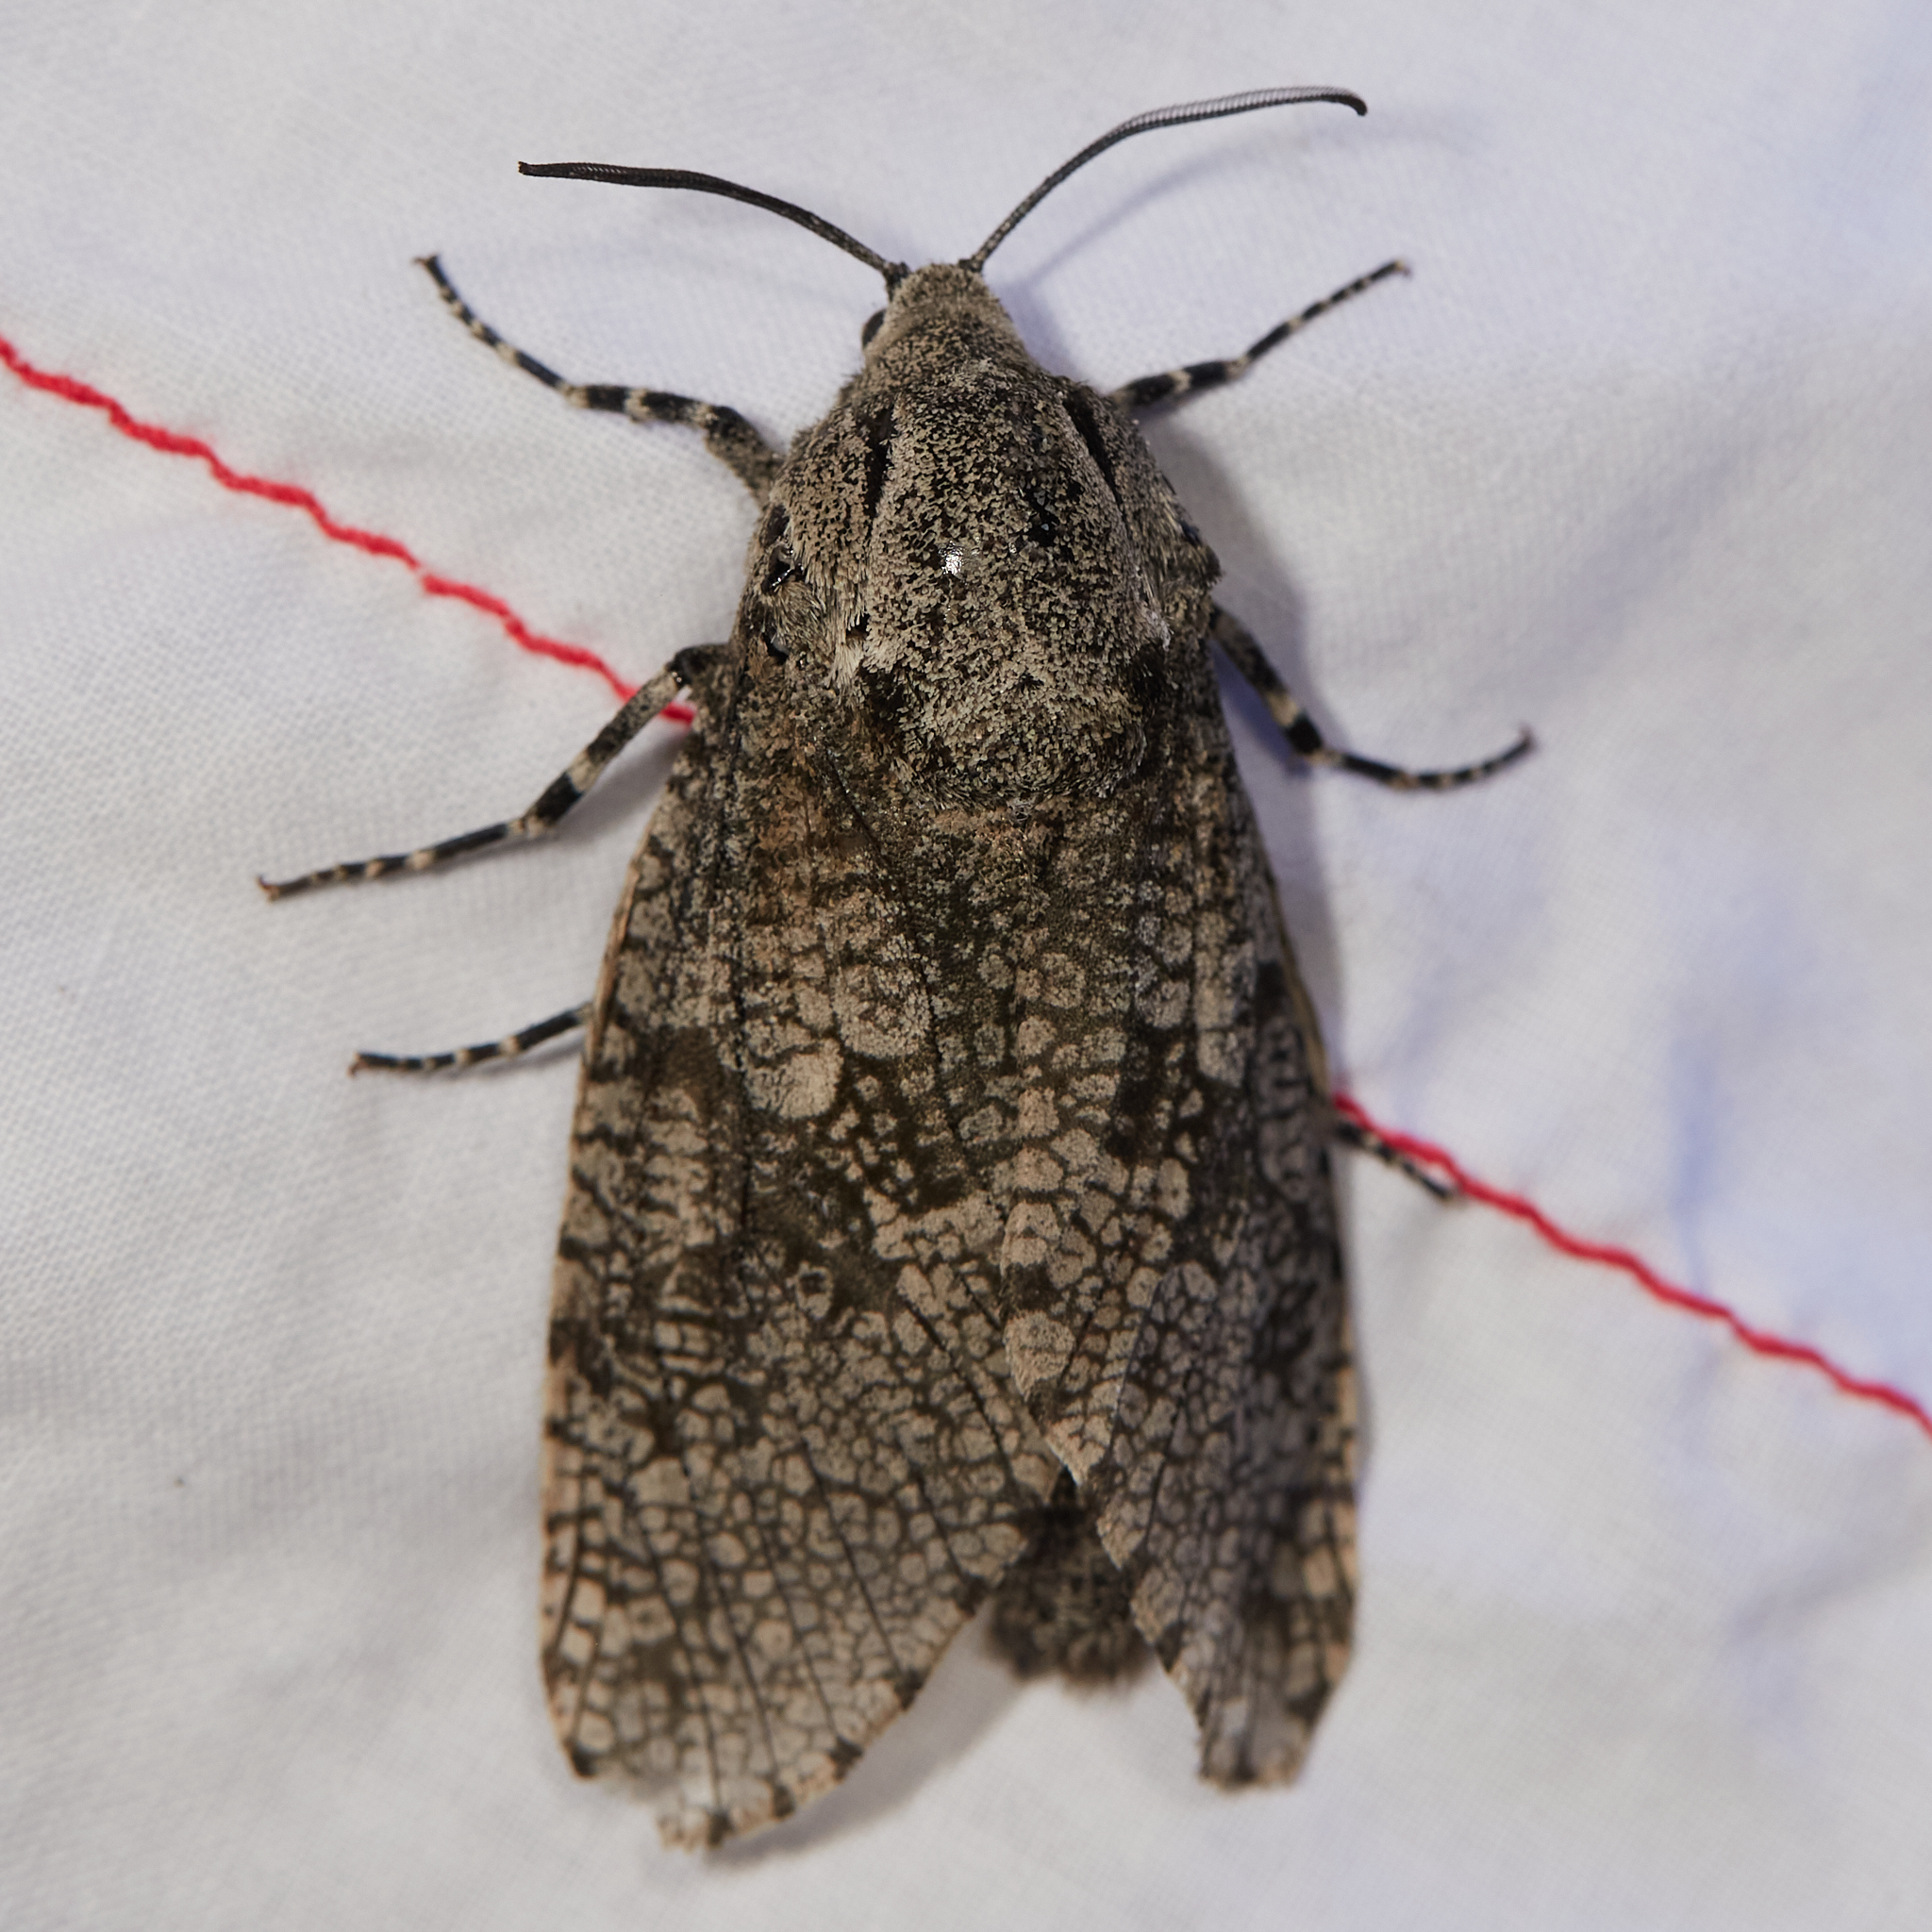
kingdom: Animalia
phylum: Arthropoda
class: Insecta
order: Lepidoptera
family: Cossidae
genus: Prionoxystus
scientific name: Prionoxystus robiniae
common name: Carpenterworm
